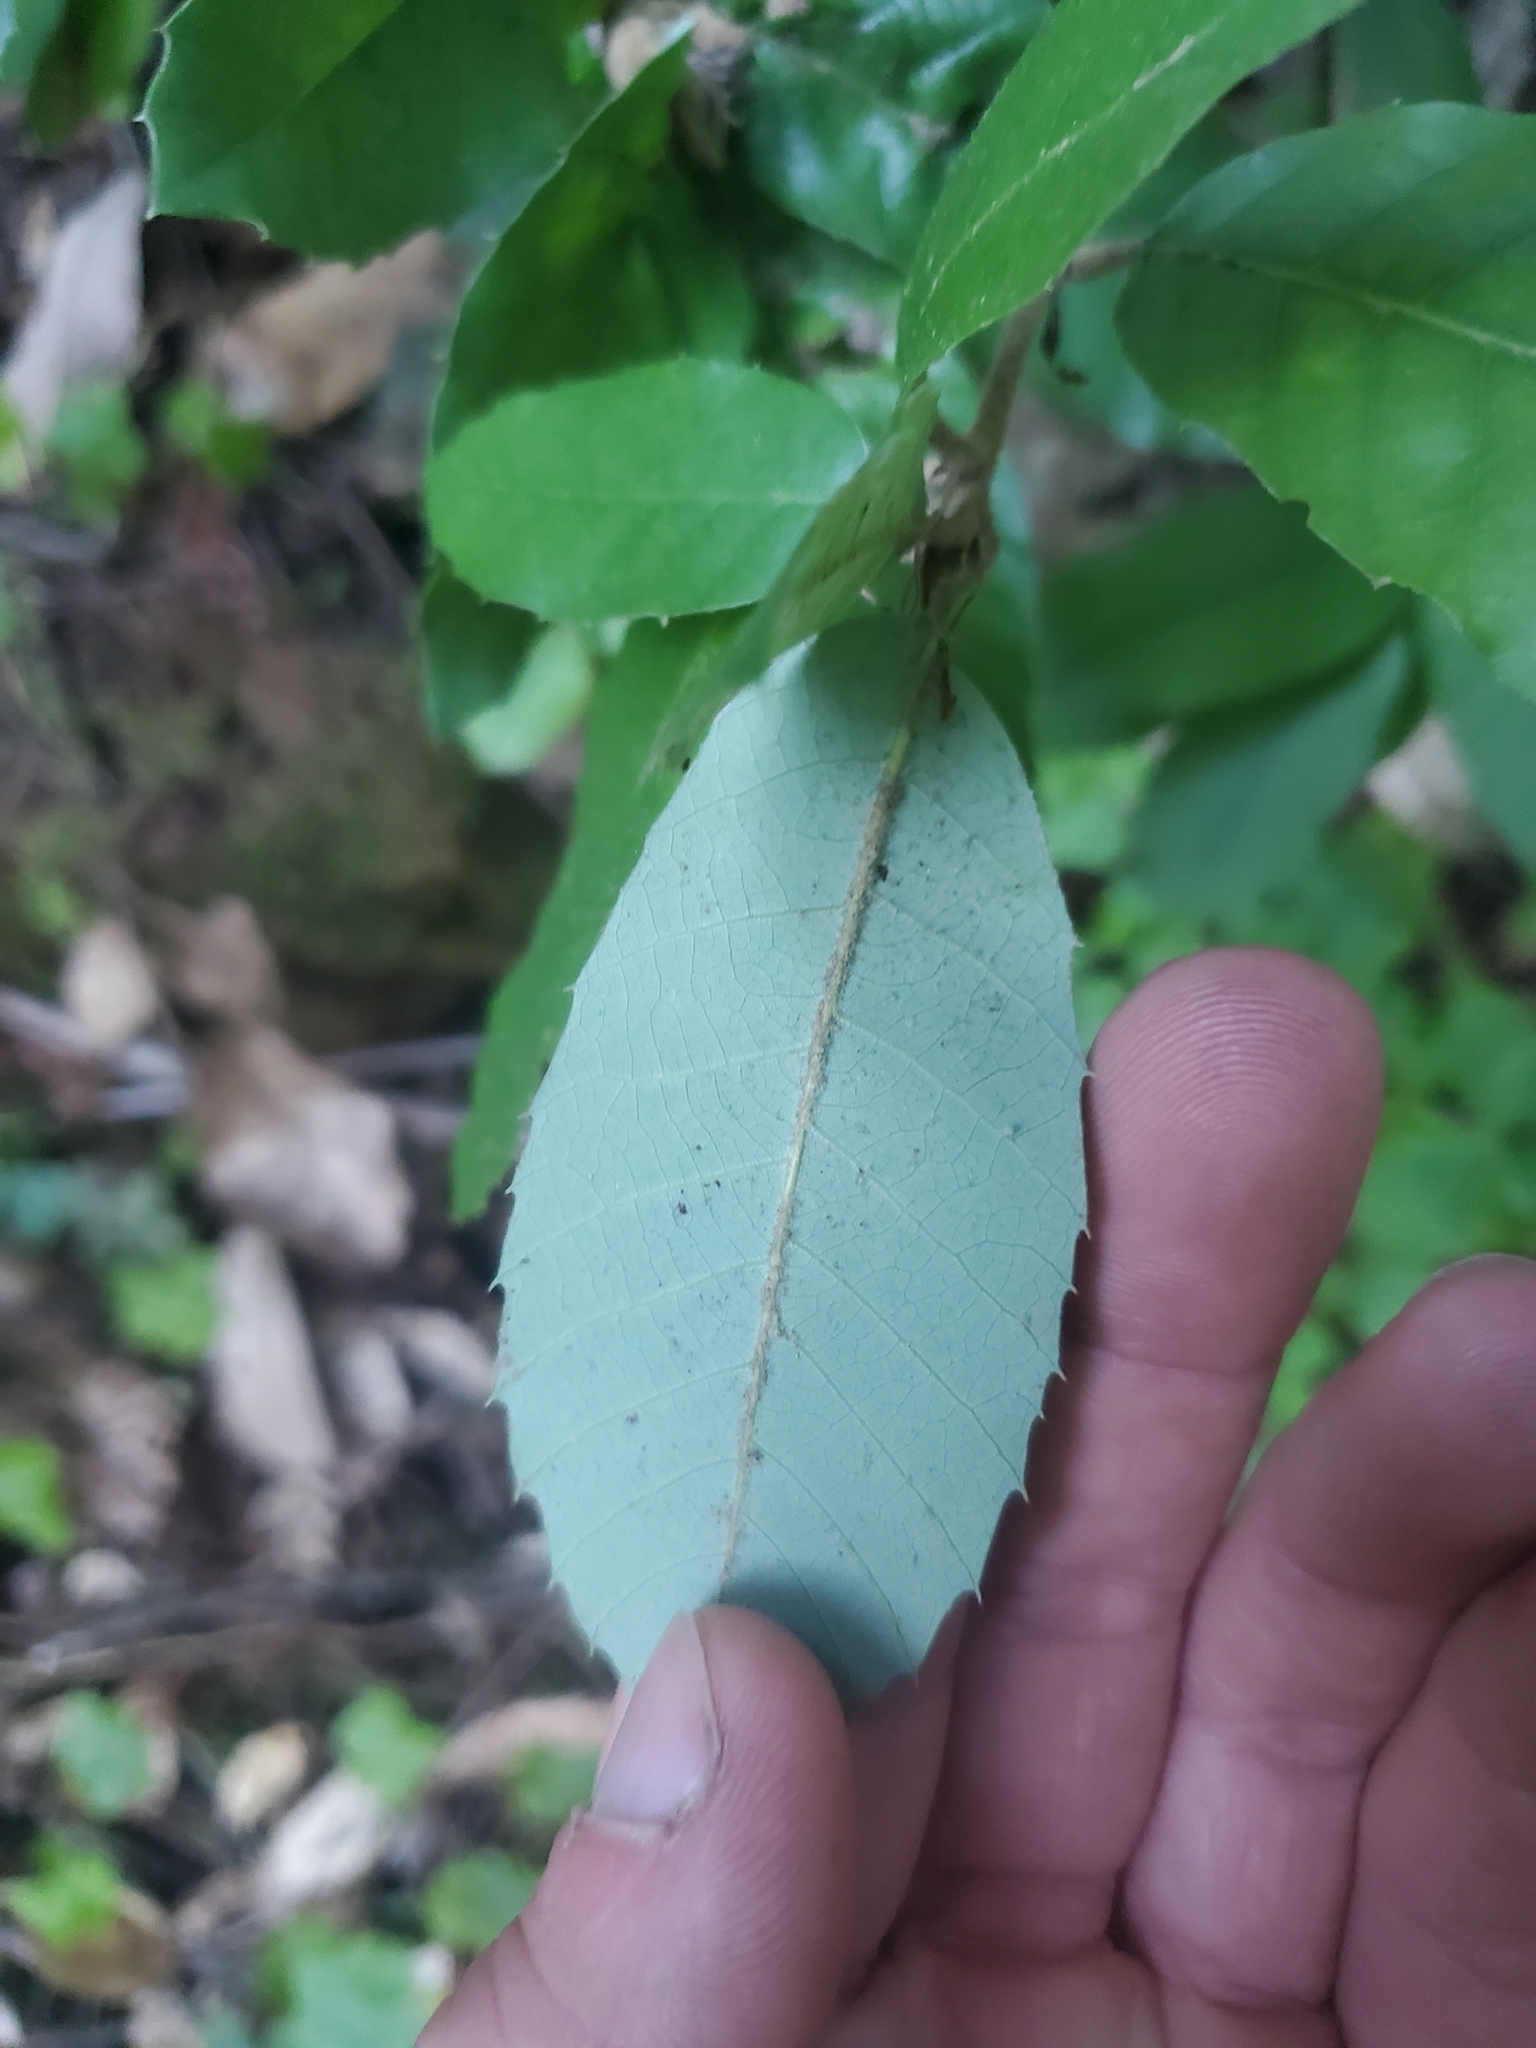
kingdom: Plantae
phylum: Tracheophyta
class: Magnoliopsida
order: Fagales
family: Fagaceae
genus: Notholithocarpus
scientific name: Notholithocarpus densiflorus
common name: Tan bark oak
